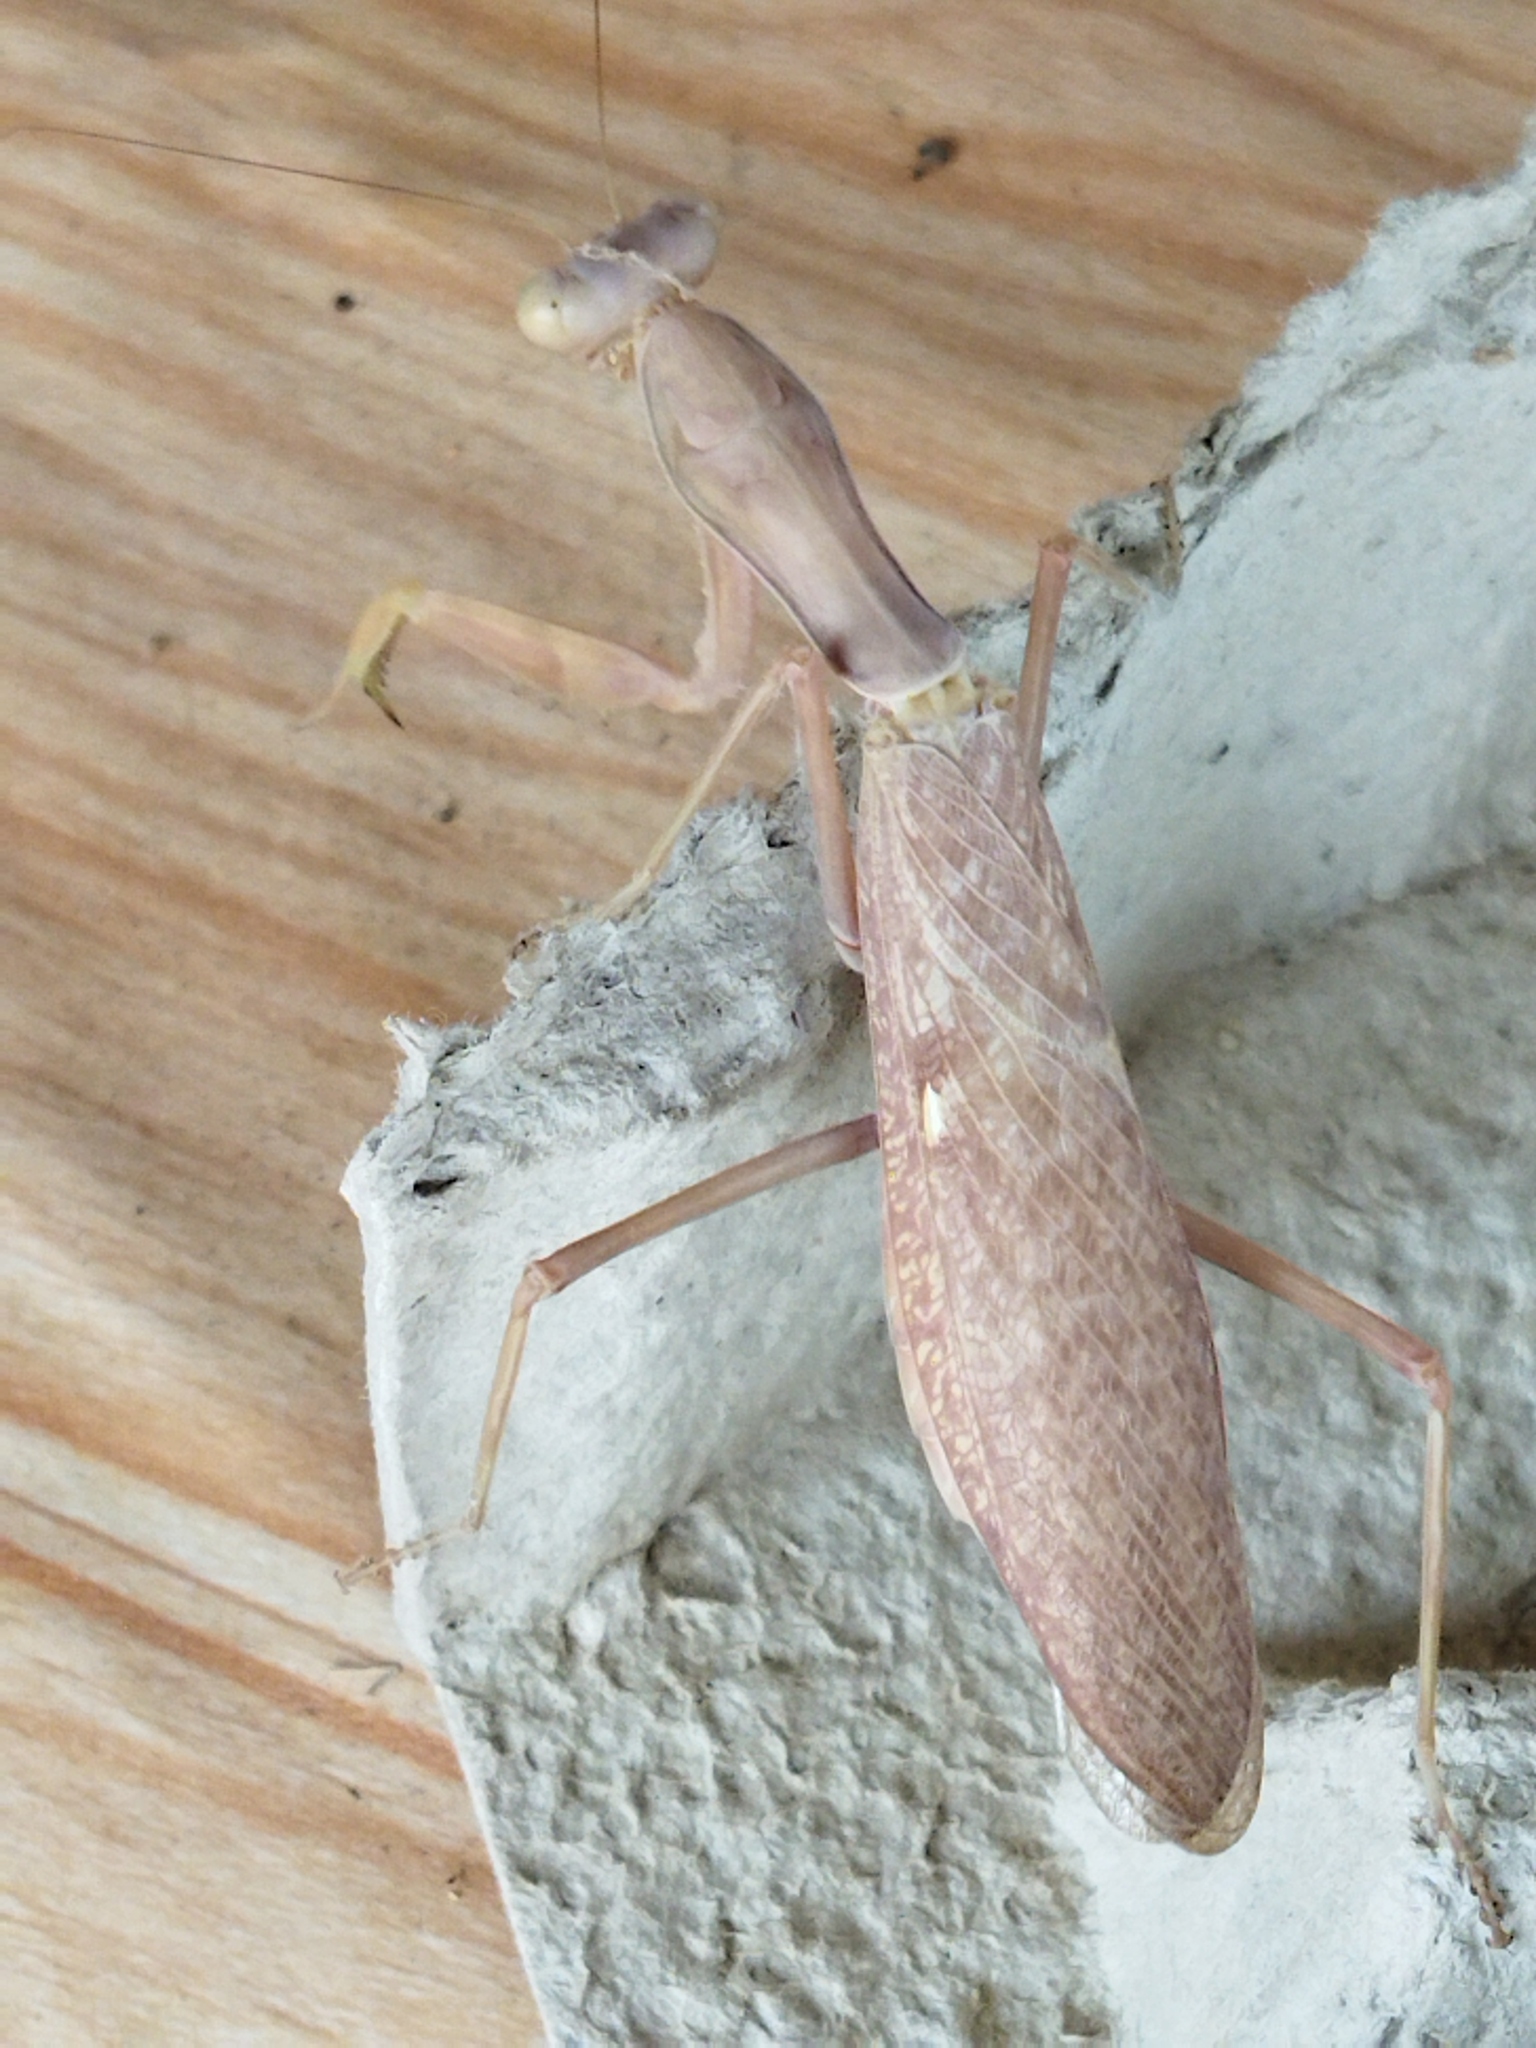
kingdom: Animalia
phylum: Arthropoda
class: Insecta
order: Mantodea
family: Mantidae
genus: Hierodula
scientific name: Hierodula transcaucasica
